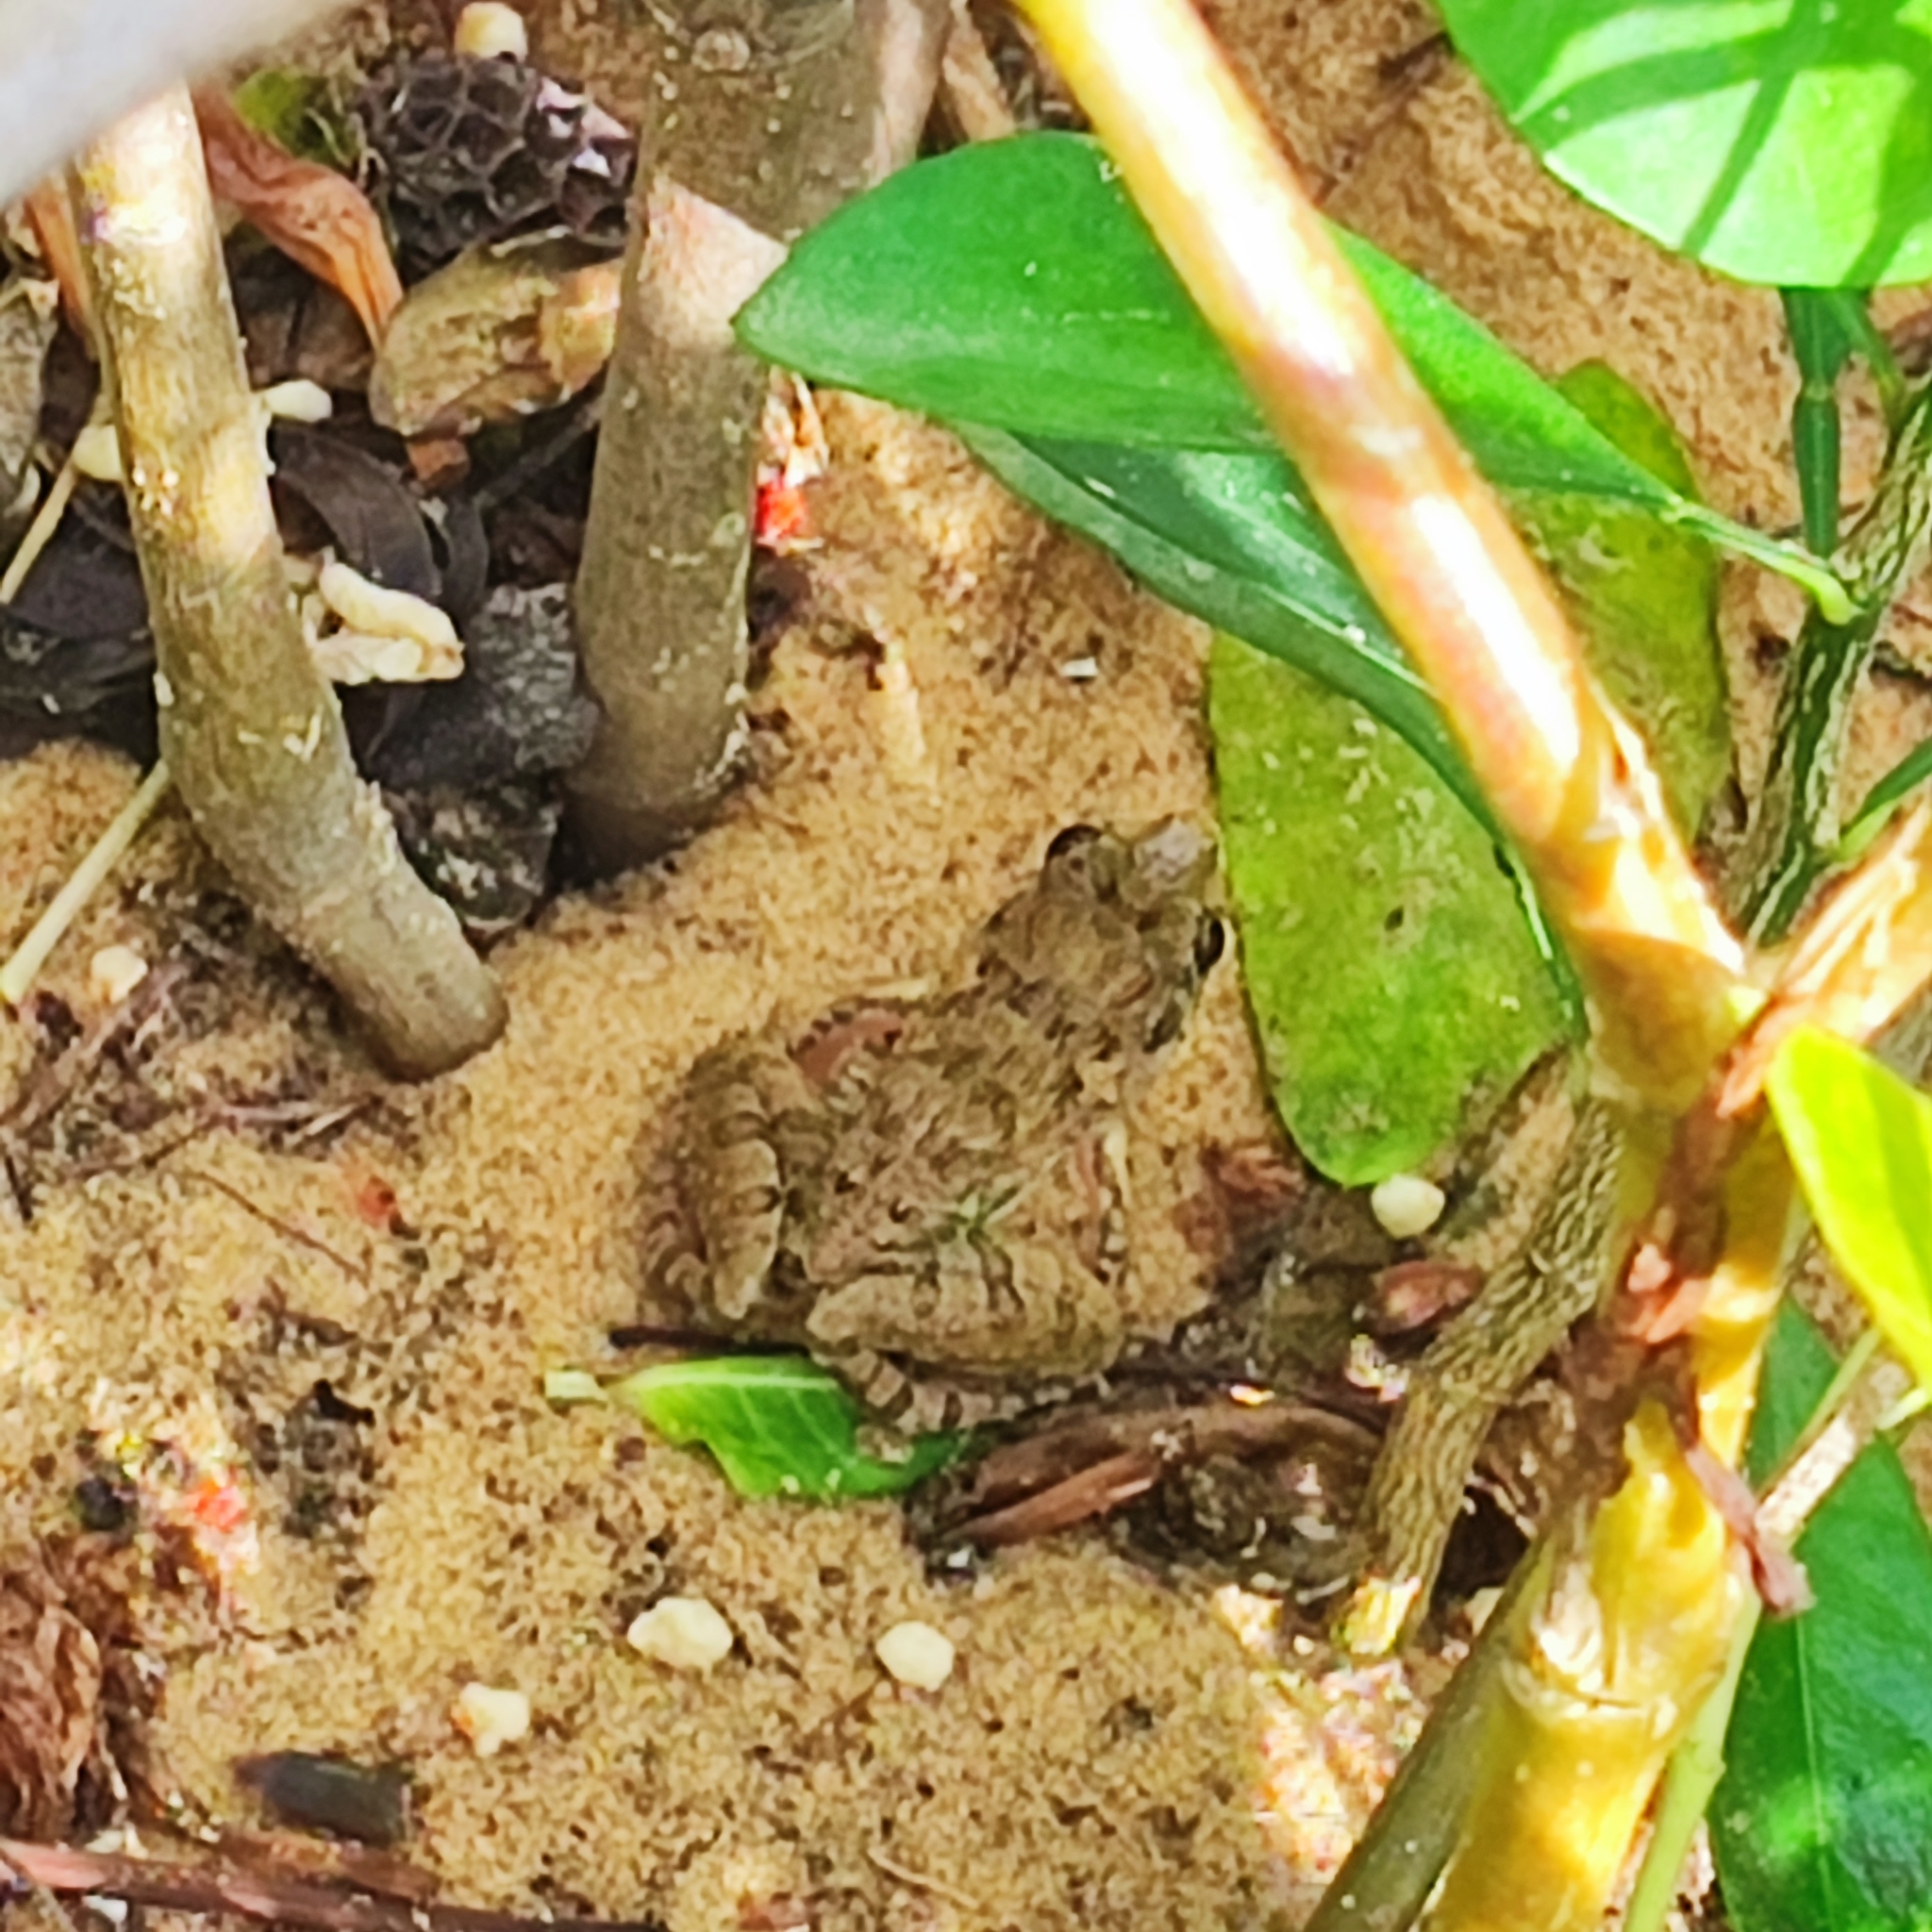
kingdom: Animalia
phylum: Chordata
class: Amphibia
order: Anura
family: Dicroglossidae
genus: Fejervarya
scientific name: Fejervarya limnocharis
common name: Asian grass frog/common pond frog/field frog/grass frog/indian rice frog
